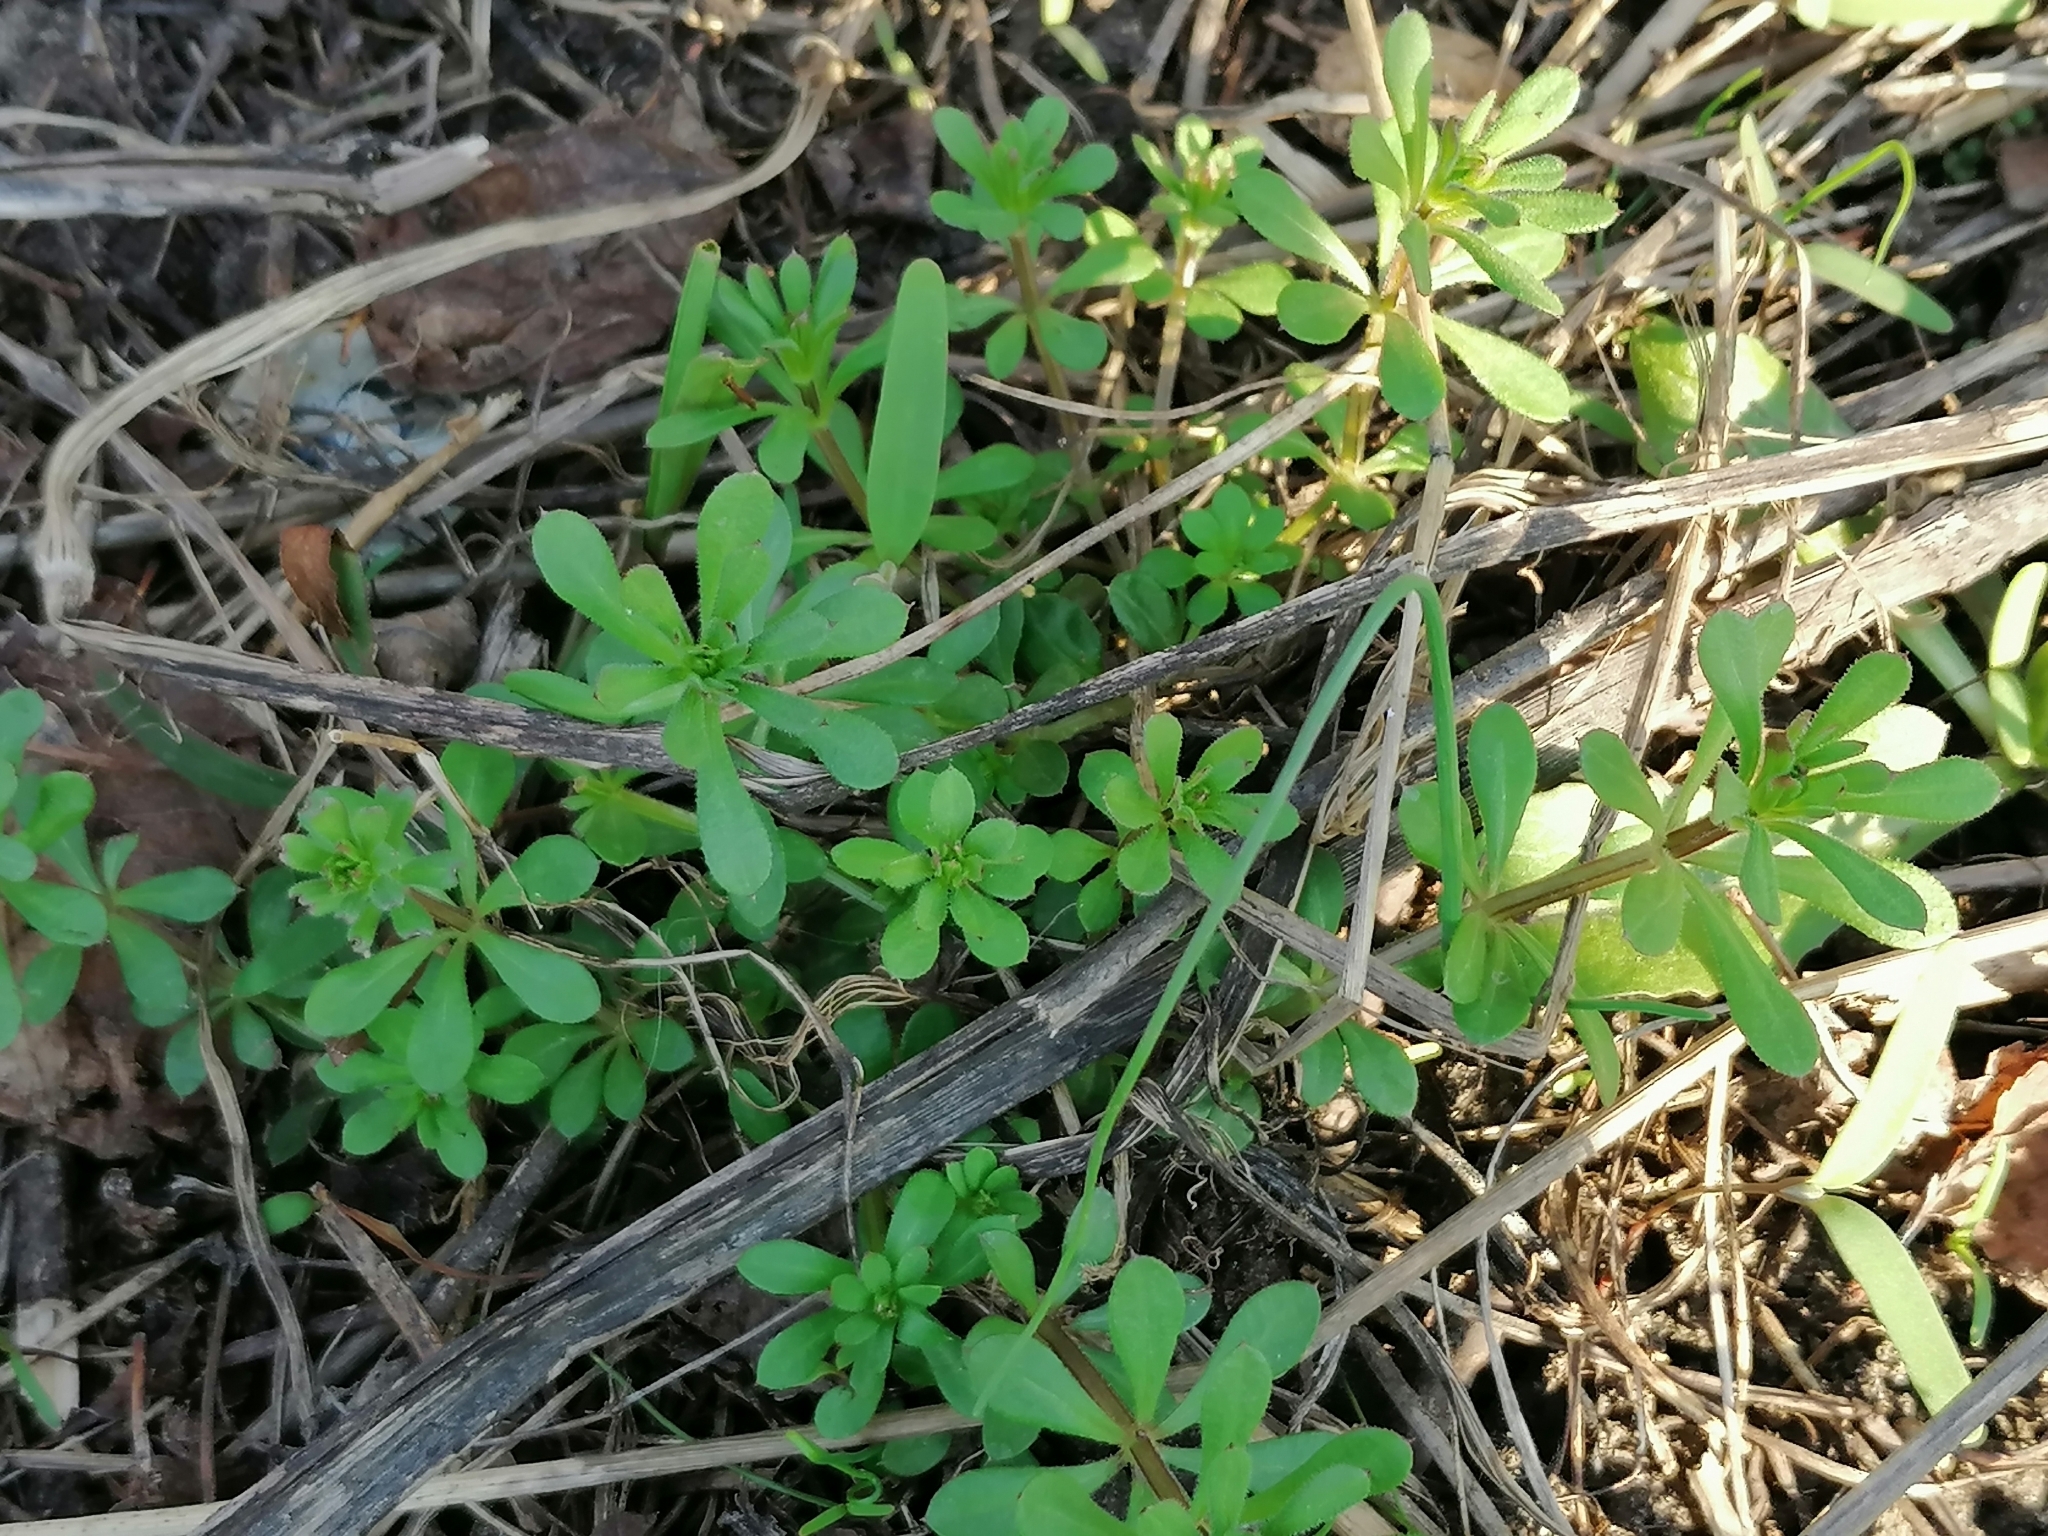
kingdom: Plantae
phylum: Tracheophyta
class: Magnoliopsida
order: Gentianales
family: Rubiaceae
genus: Galium
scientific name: Galium aparine
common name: Cleavers
